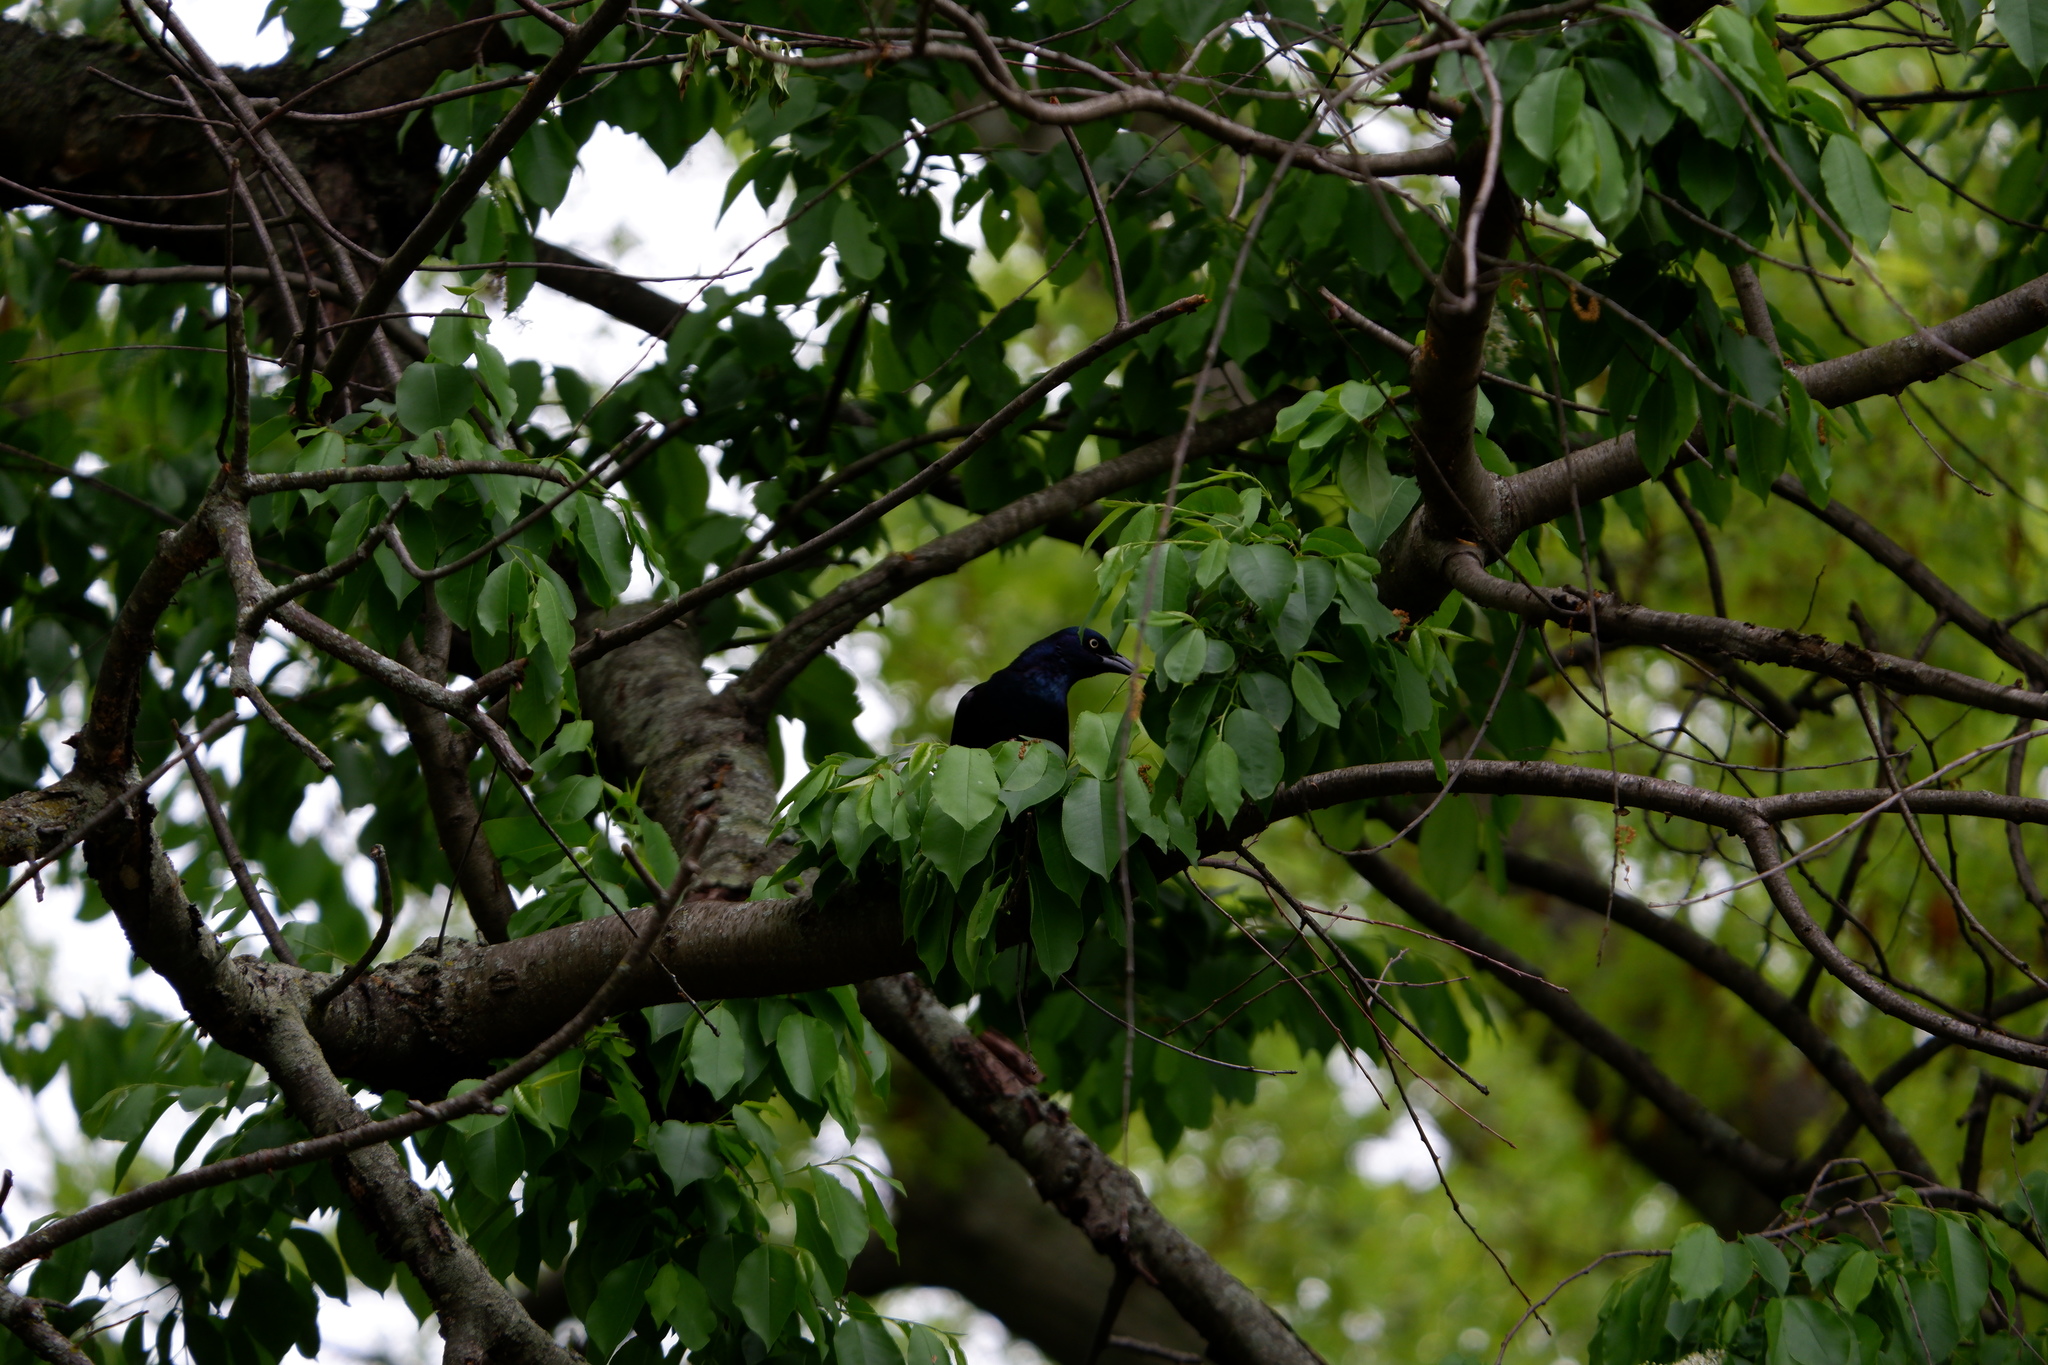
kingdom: Animalia
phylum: Chordata
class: Aves
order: Passeriformes
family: Icteridae
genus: Quiscalus
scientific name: Quiscalus quiscula
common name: Common grackle
